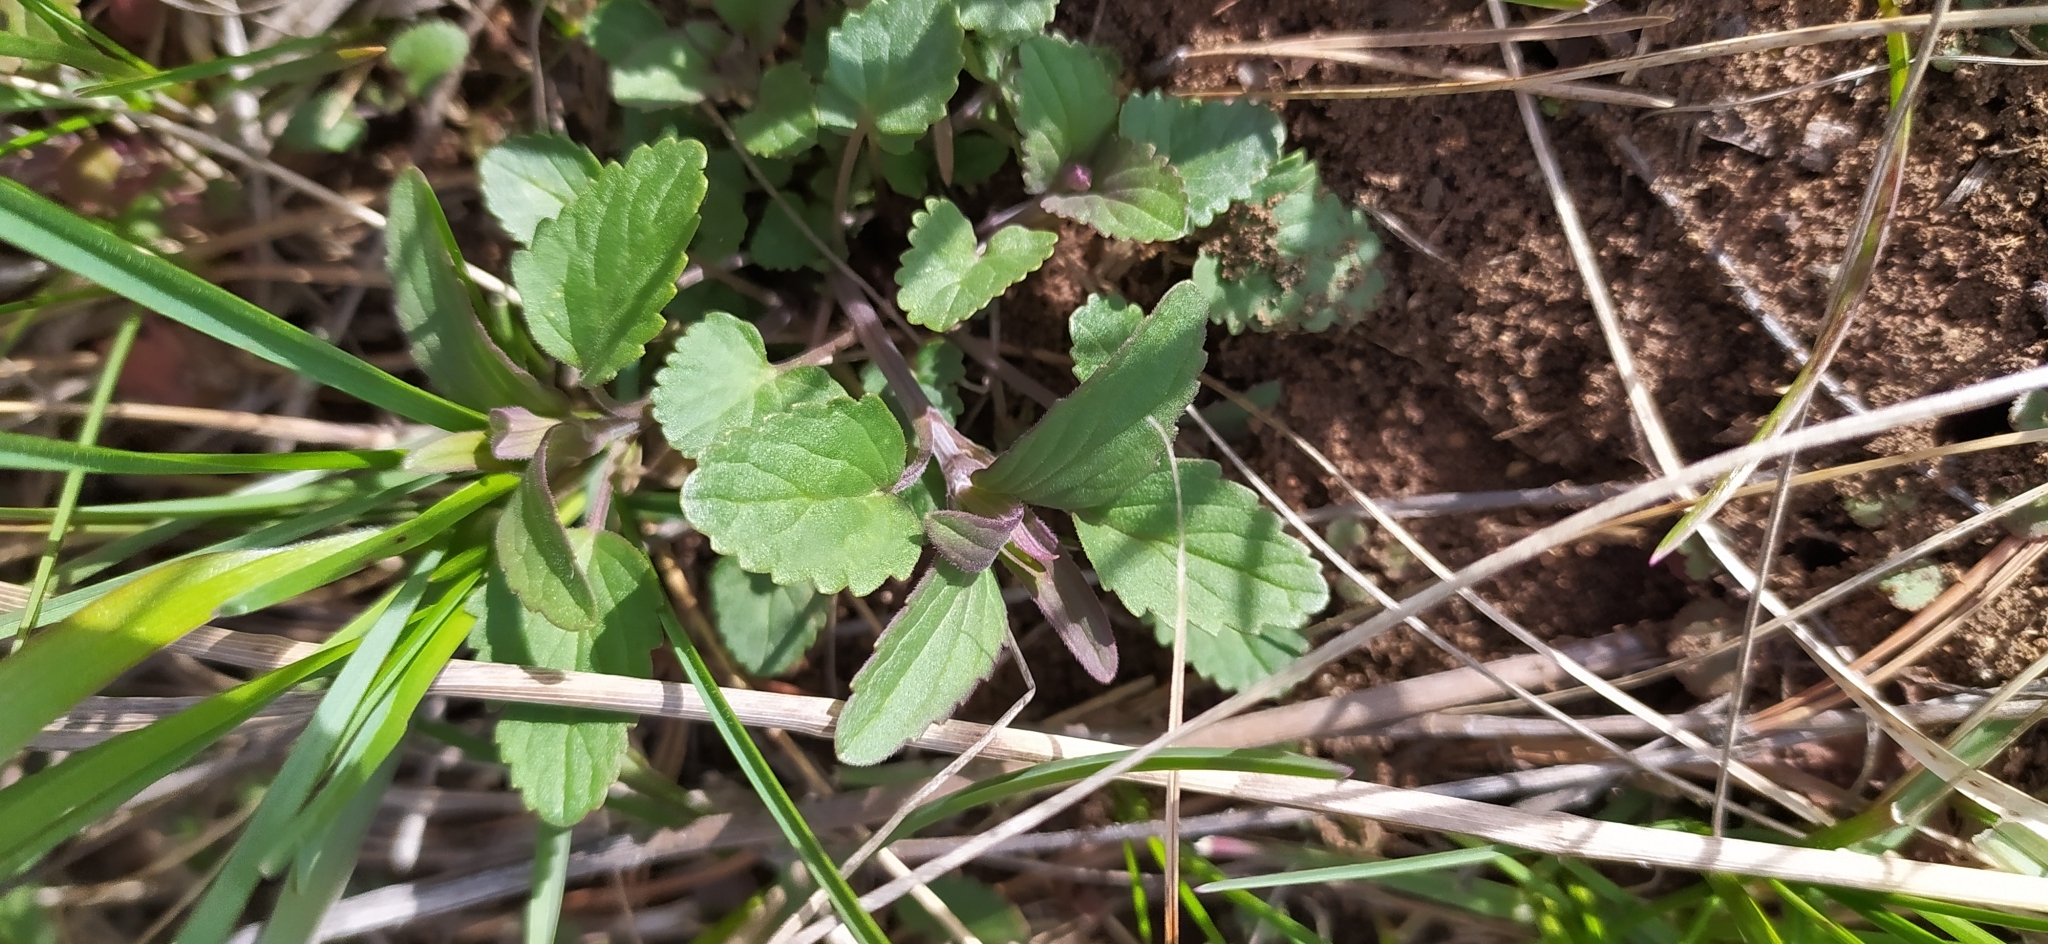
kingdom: Plantae
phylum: Tracheophyta
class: Magnoliopsida
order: Lamiales
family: Lamiaceae
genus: Dracocephalum
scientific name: Dracocephalum thymiflorum
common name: Thymeleaf dragonhead
